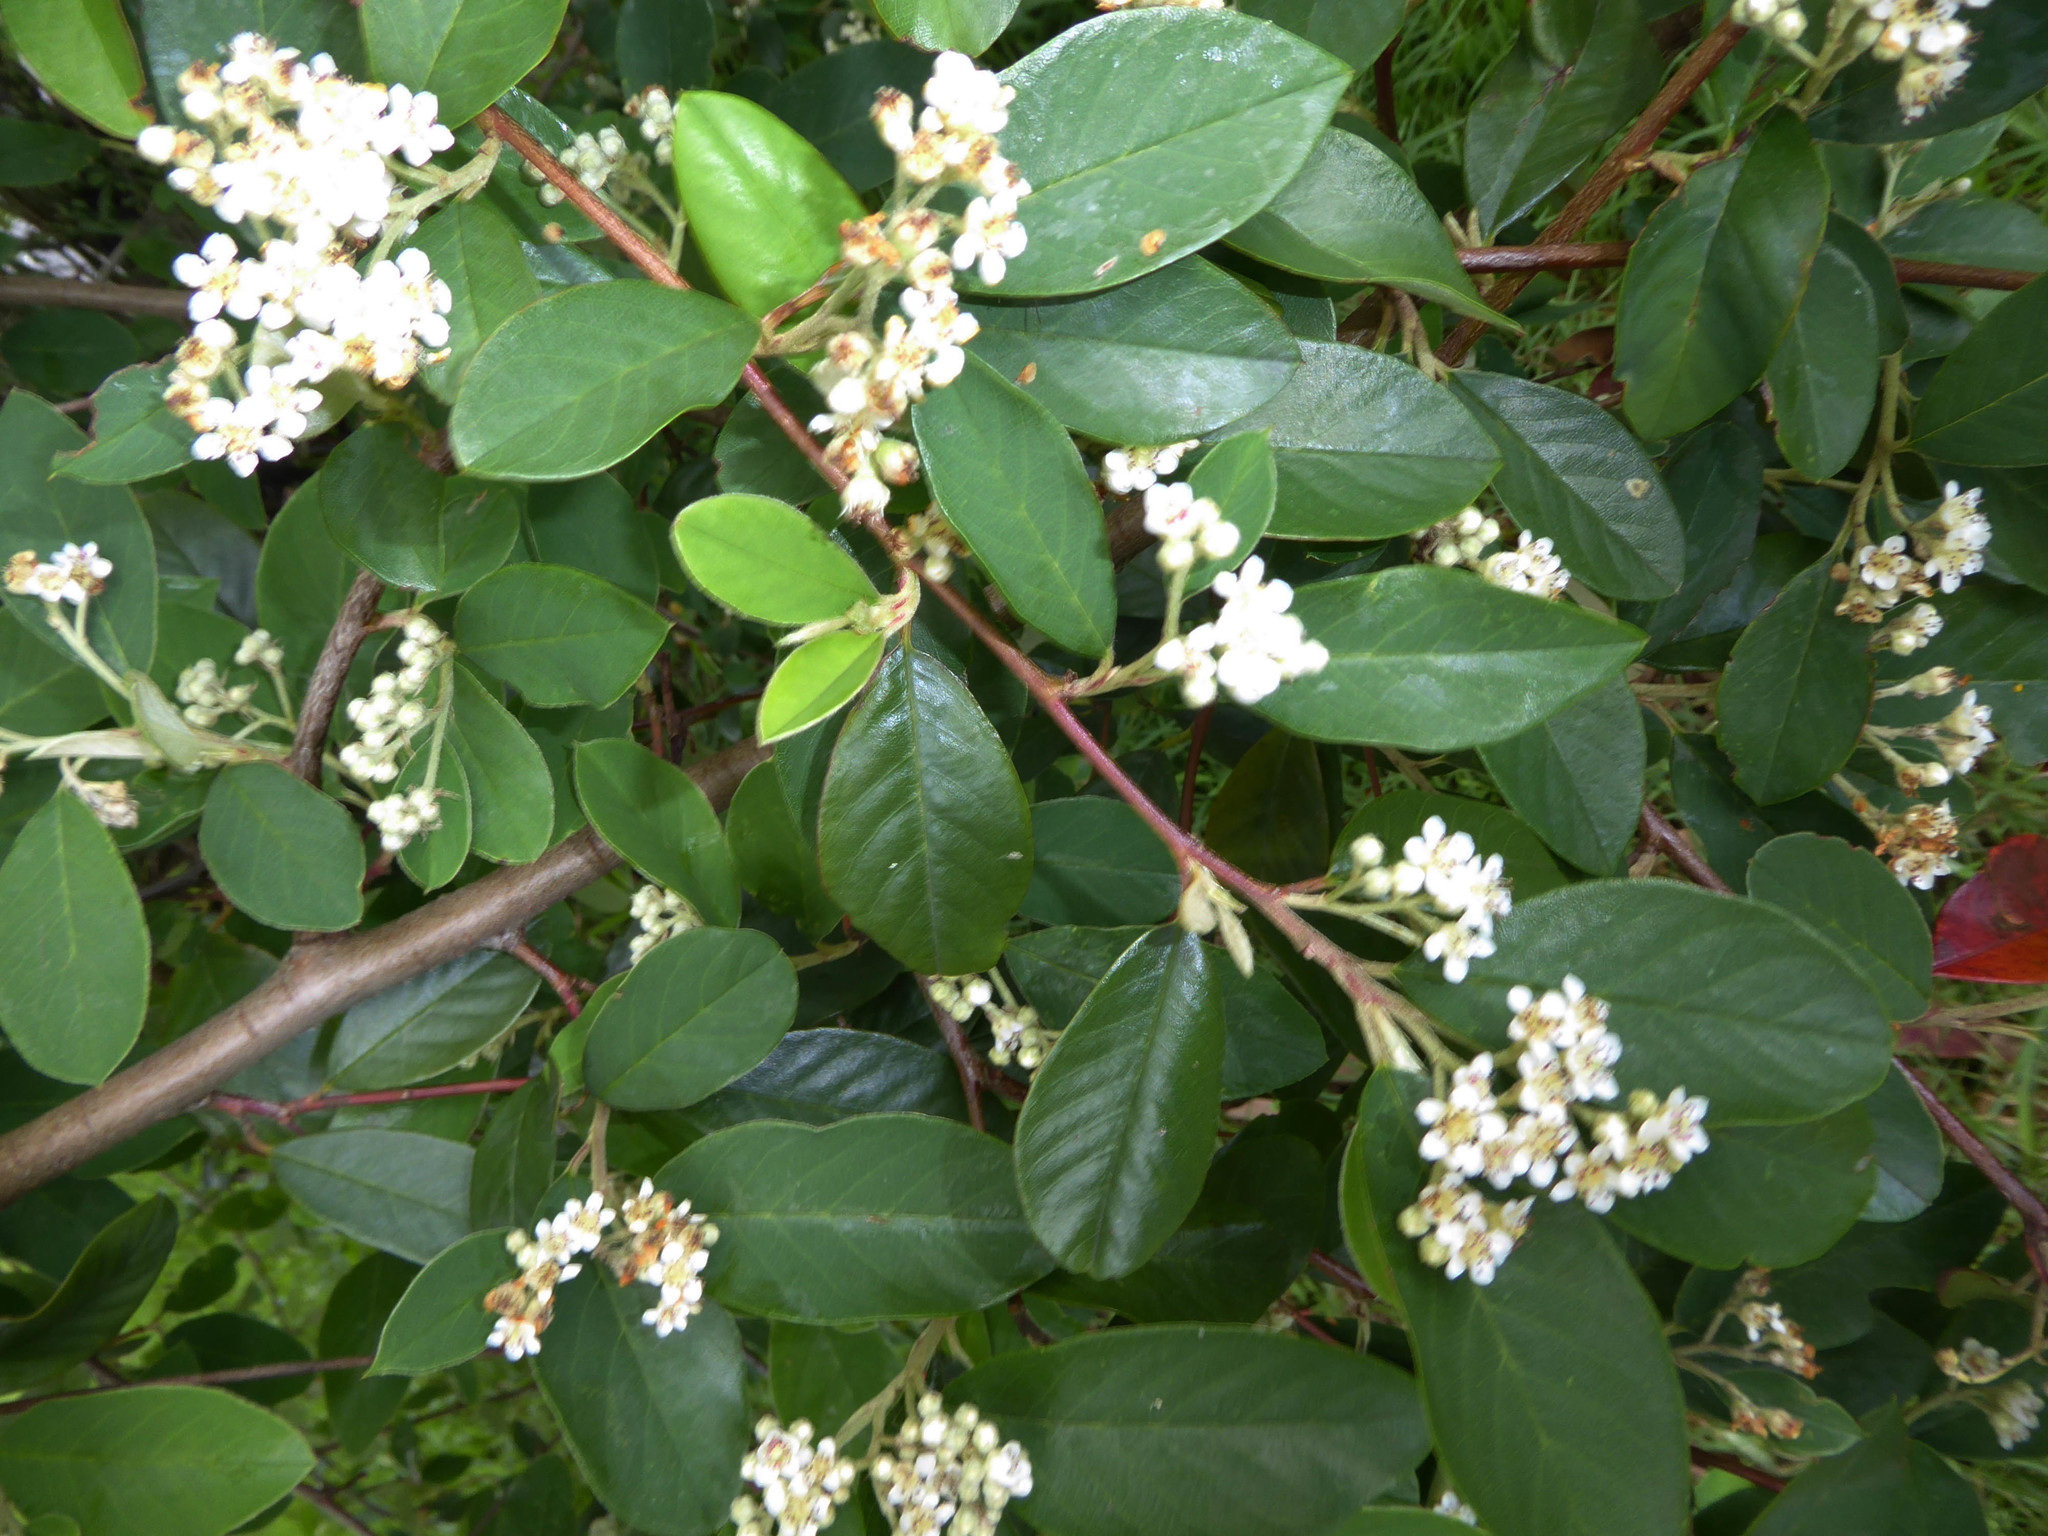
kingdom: Plantae
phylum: Tracheophyta
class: Magnoliopsida
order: Rosales
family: Rosaceae
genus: Cotoneaster
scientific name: Cotoneaster glaucophyllus
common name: Glaucous cotoneaster
